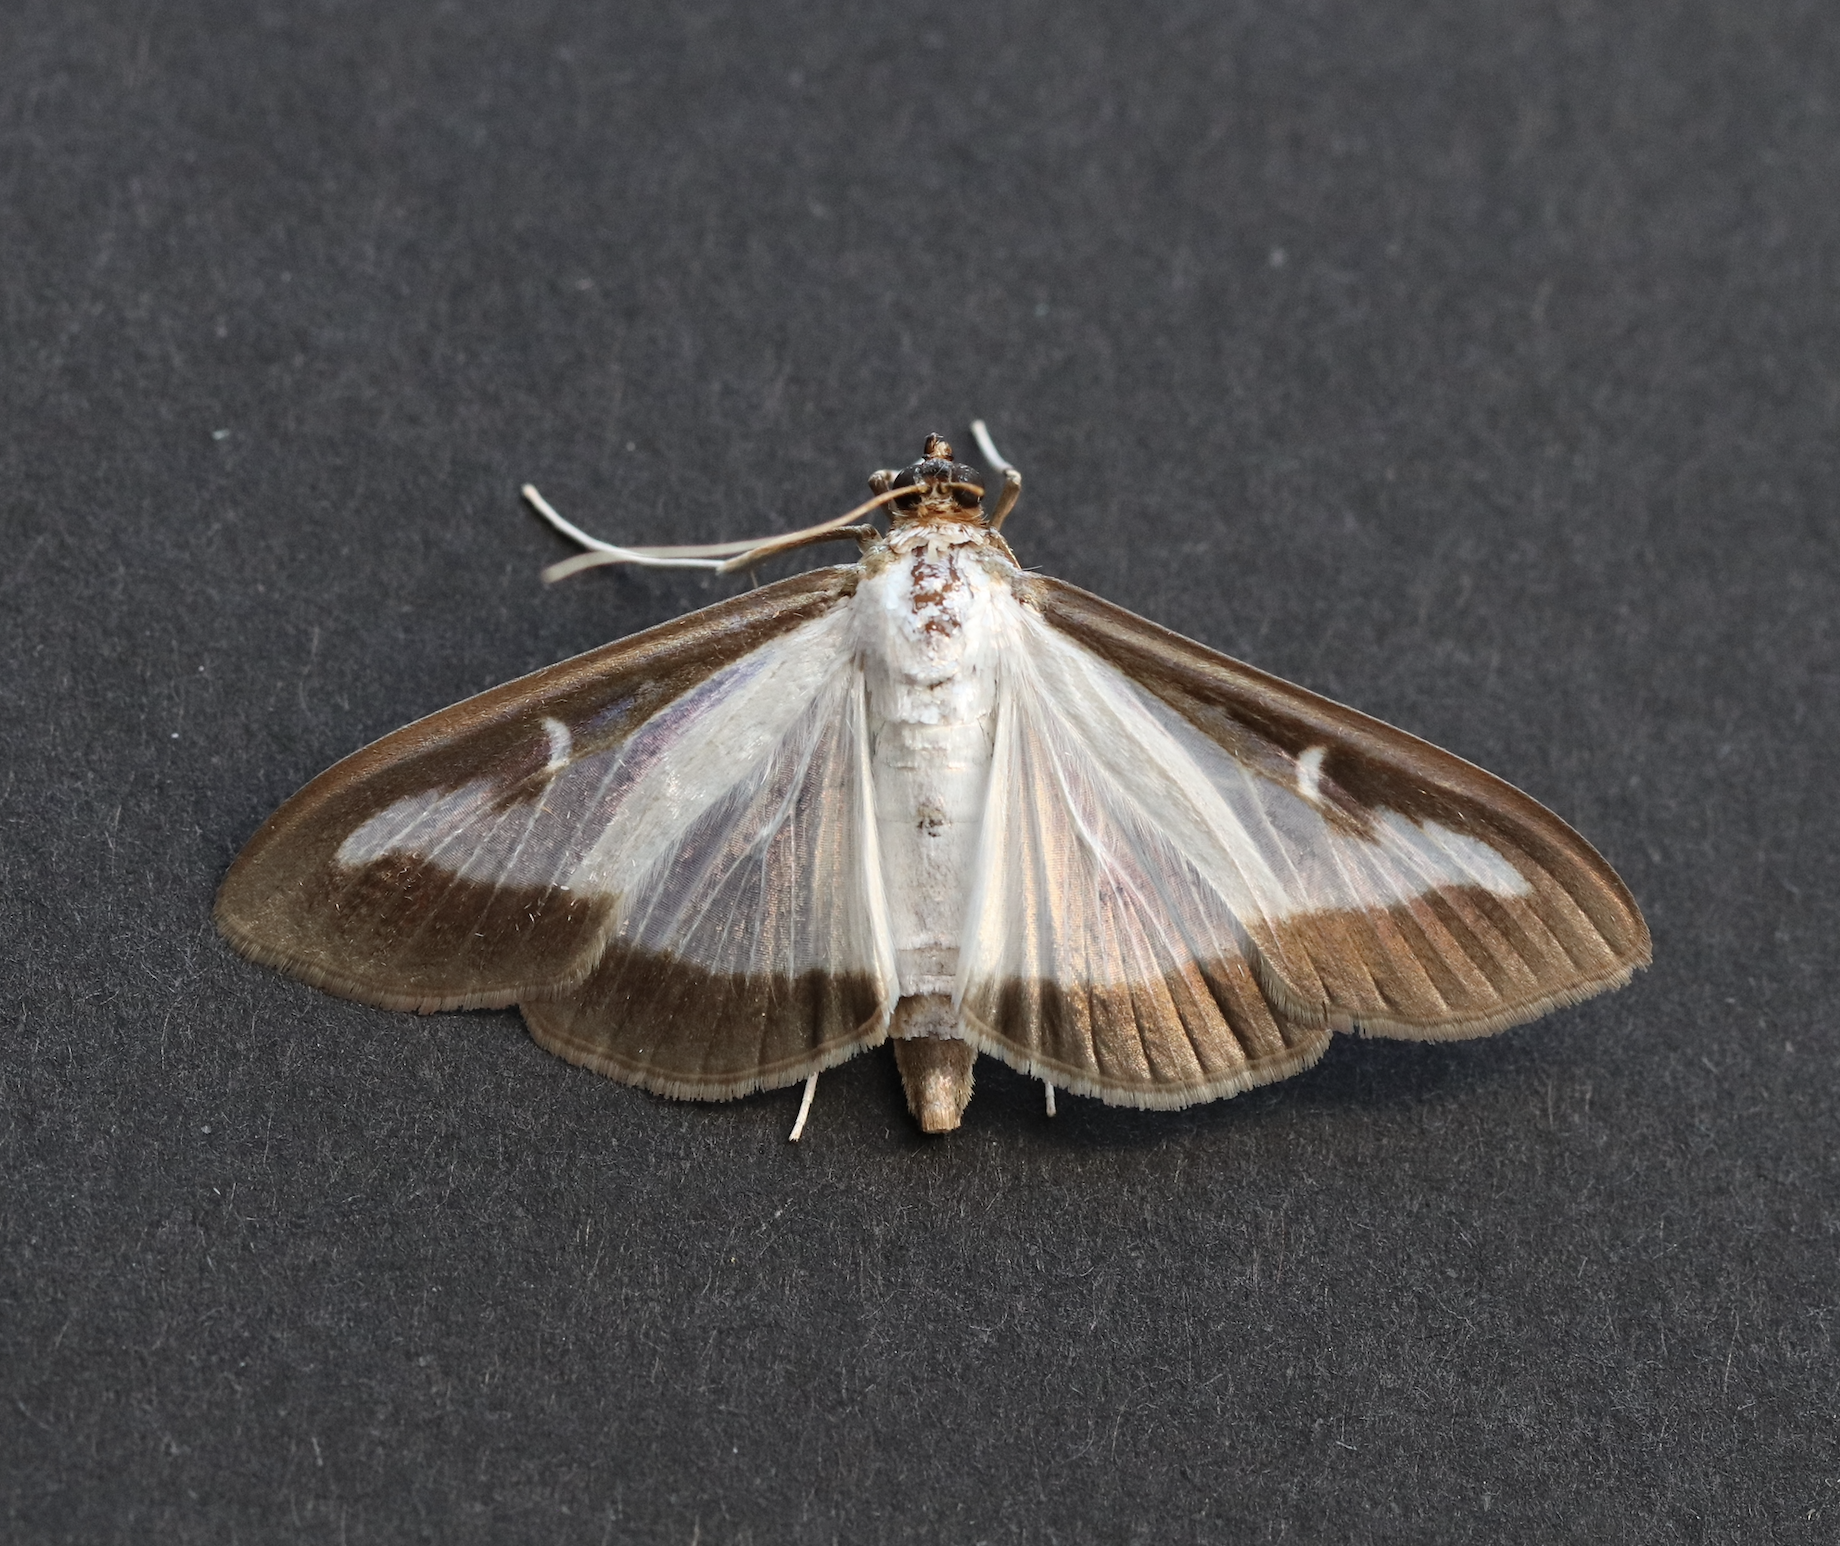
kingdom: Animalia
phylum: Arthropoda
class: Insecta
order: Lepidoptera
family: Crambidae
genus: Cydalima
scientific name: Cydalima perspectalis
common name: Box tree moth
